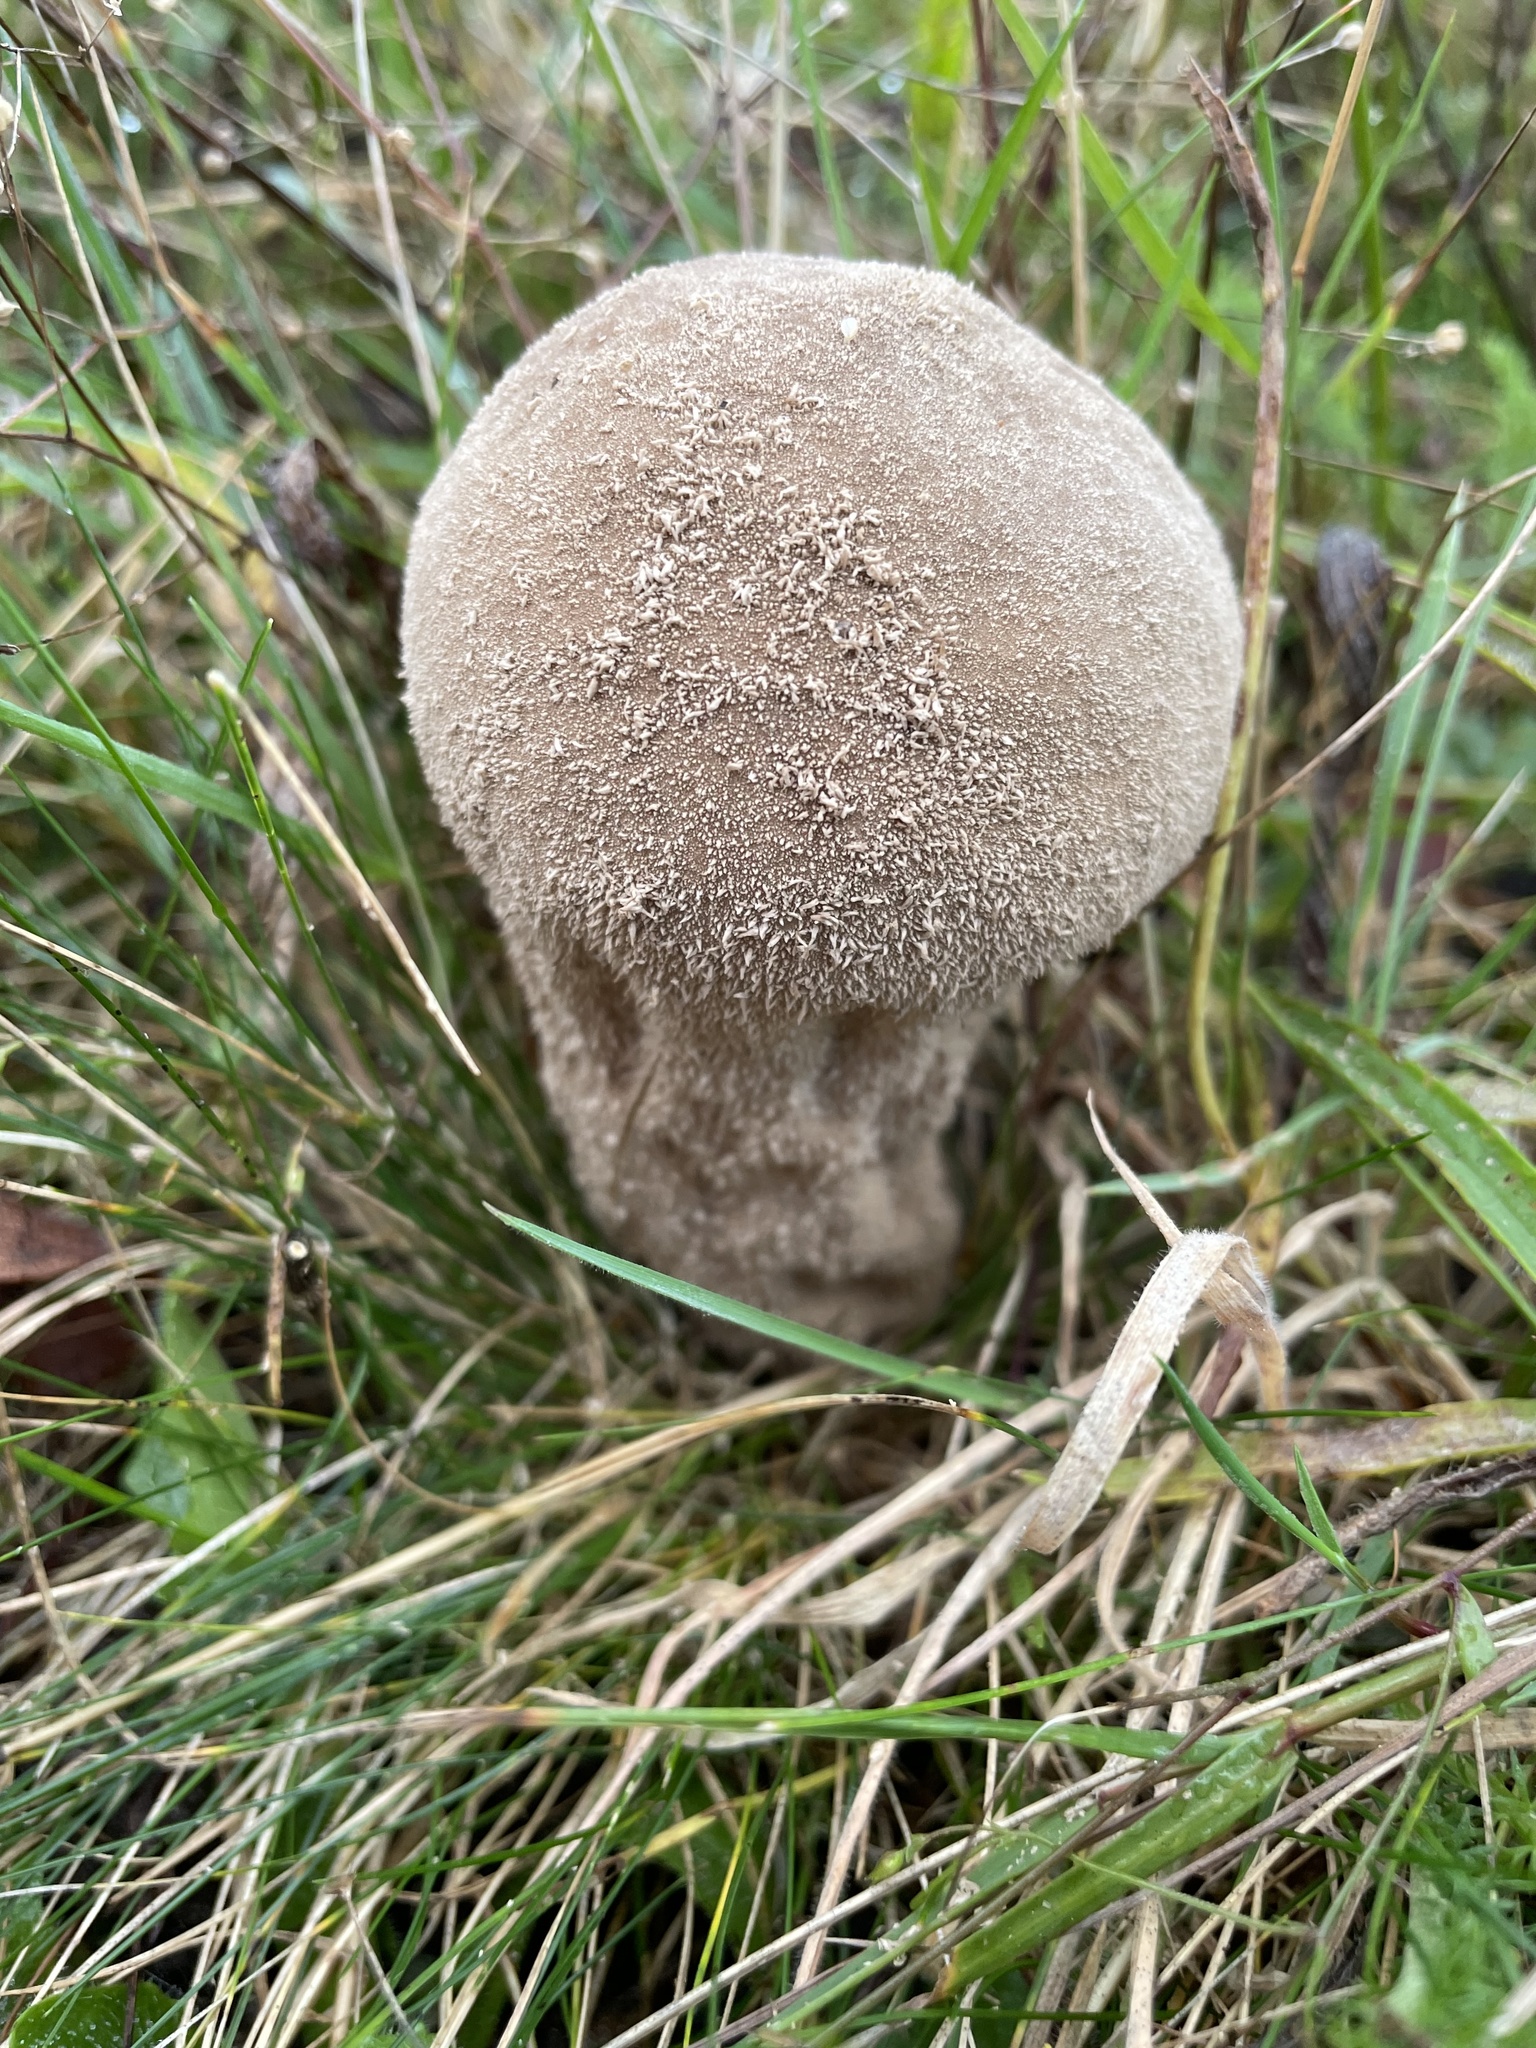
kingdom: Fungi
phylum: Basidiomycota
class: Agaricomycetes
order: Agaricales
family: Lycoperdaceae
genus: Lycoperdon
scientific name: Lycoperdon excipuliforme
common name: Pestle puffball
